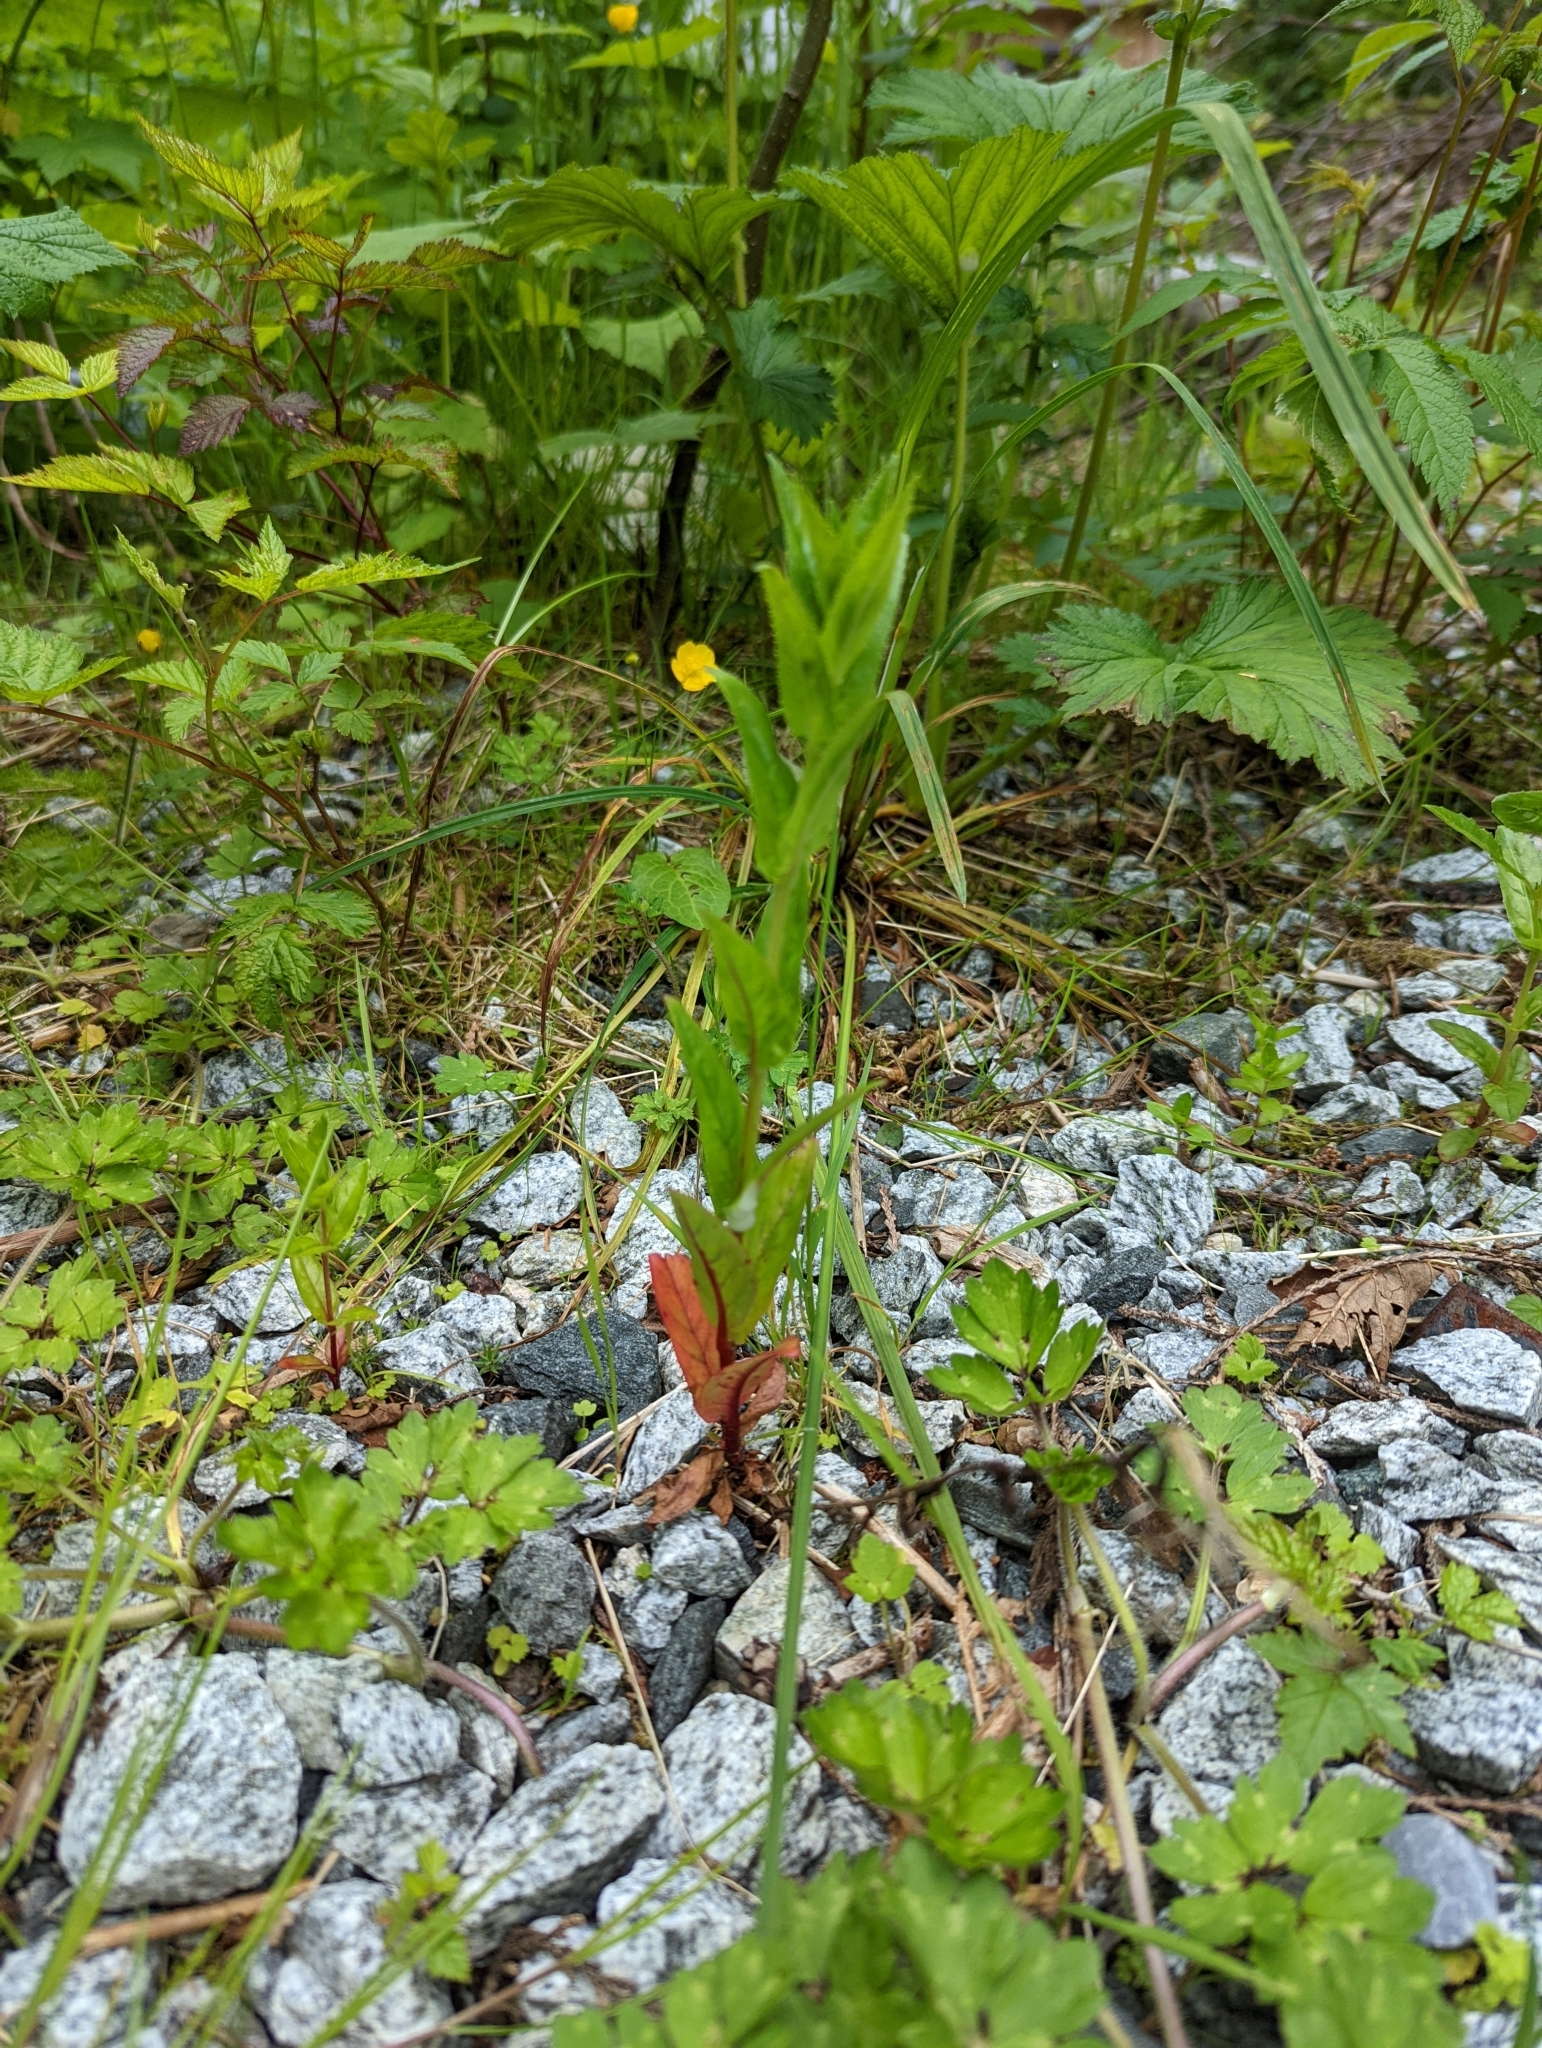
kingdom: Plantae
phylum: Tracheophyta
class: Magnoliopsida
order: Myrtales
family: Onagraceae
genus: Epilobium
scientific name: Epilobium ciliatum
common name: American willowherb
